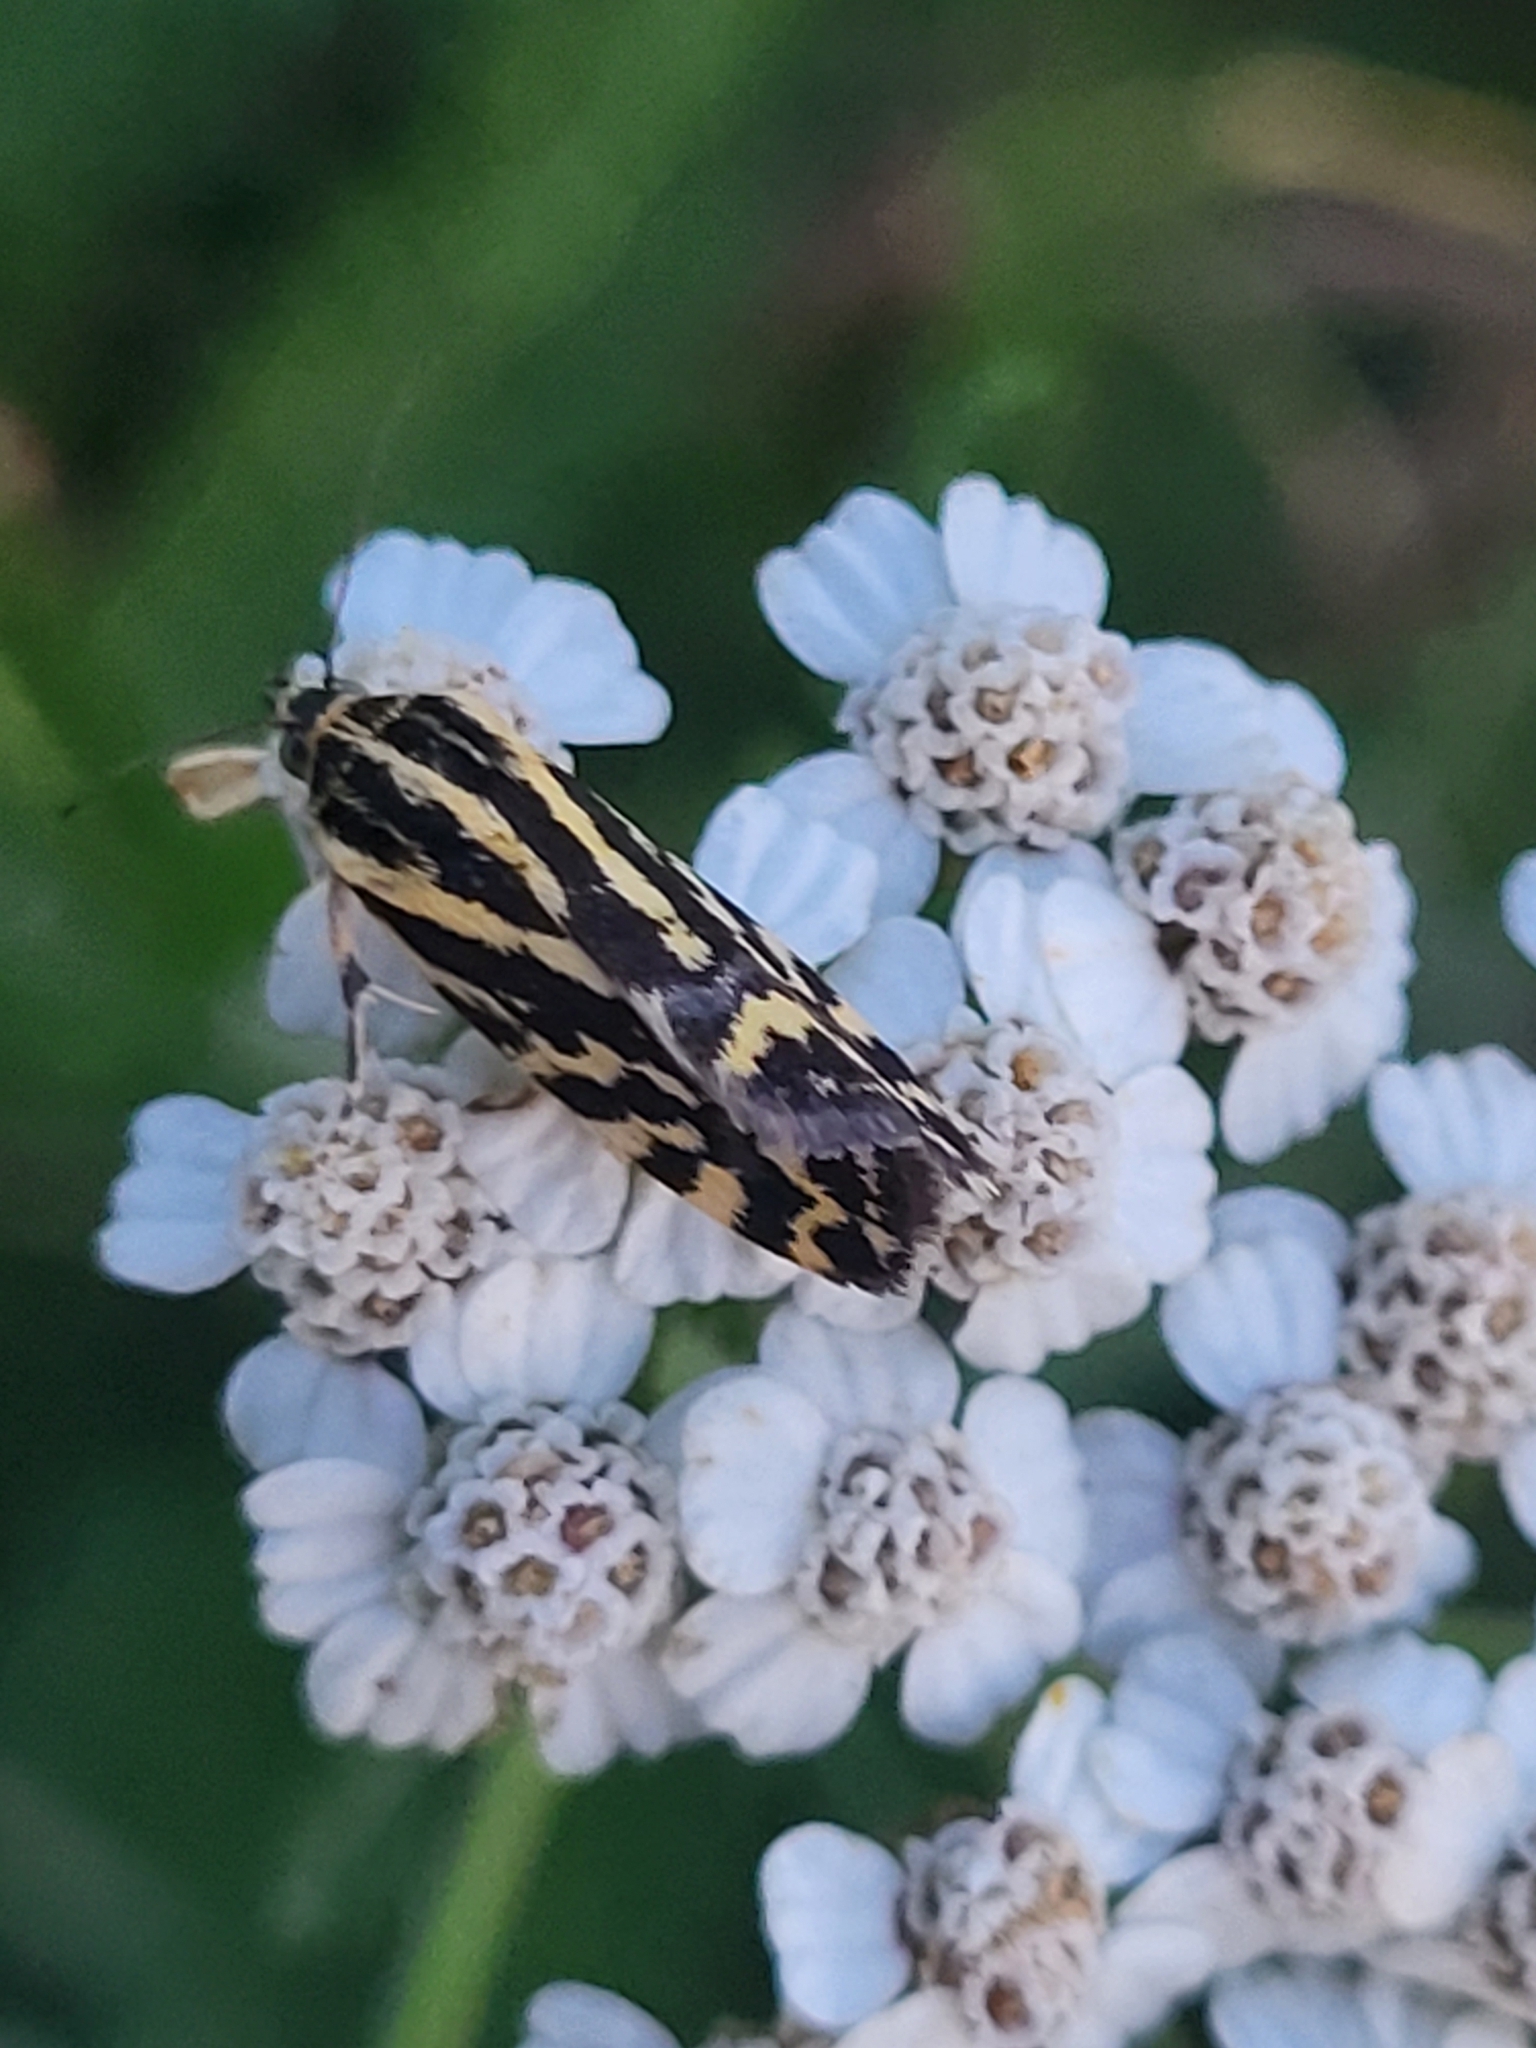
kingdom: Animalia
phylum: Arthropoda
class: Insecta
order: Lepidoptera
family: Noctuidae
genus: Acontia
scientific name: Acontia trabealis
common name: Spotted sulphur
